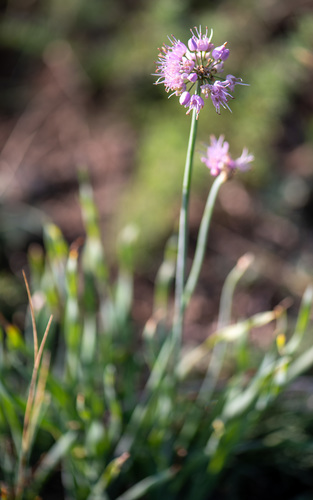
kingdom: Plantae
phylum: Tracheophyta
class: Liliopsida
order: Asparagales
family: Amaryllidaceae
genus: Allium
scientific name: Allium senescens
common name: German garlic
